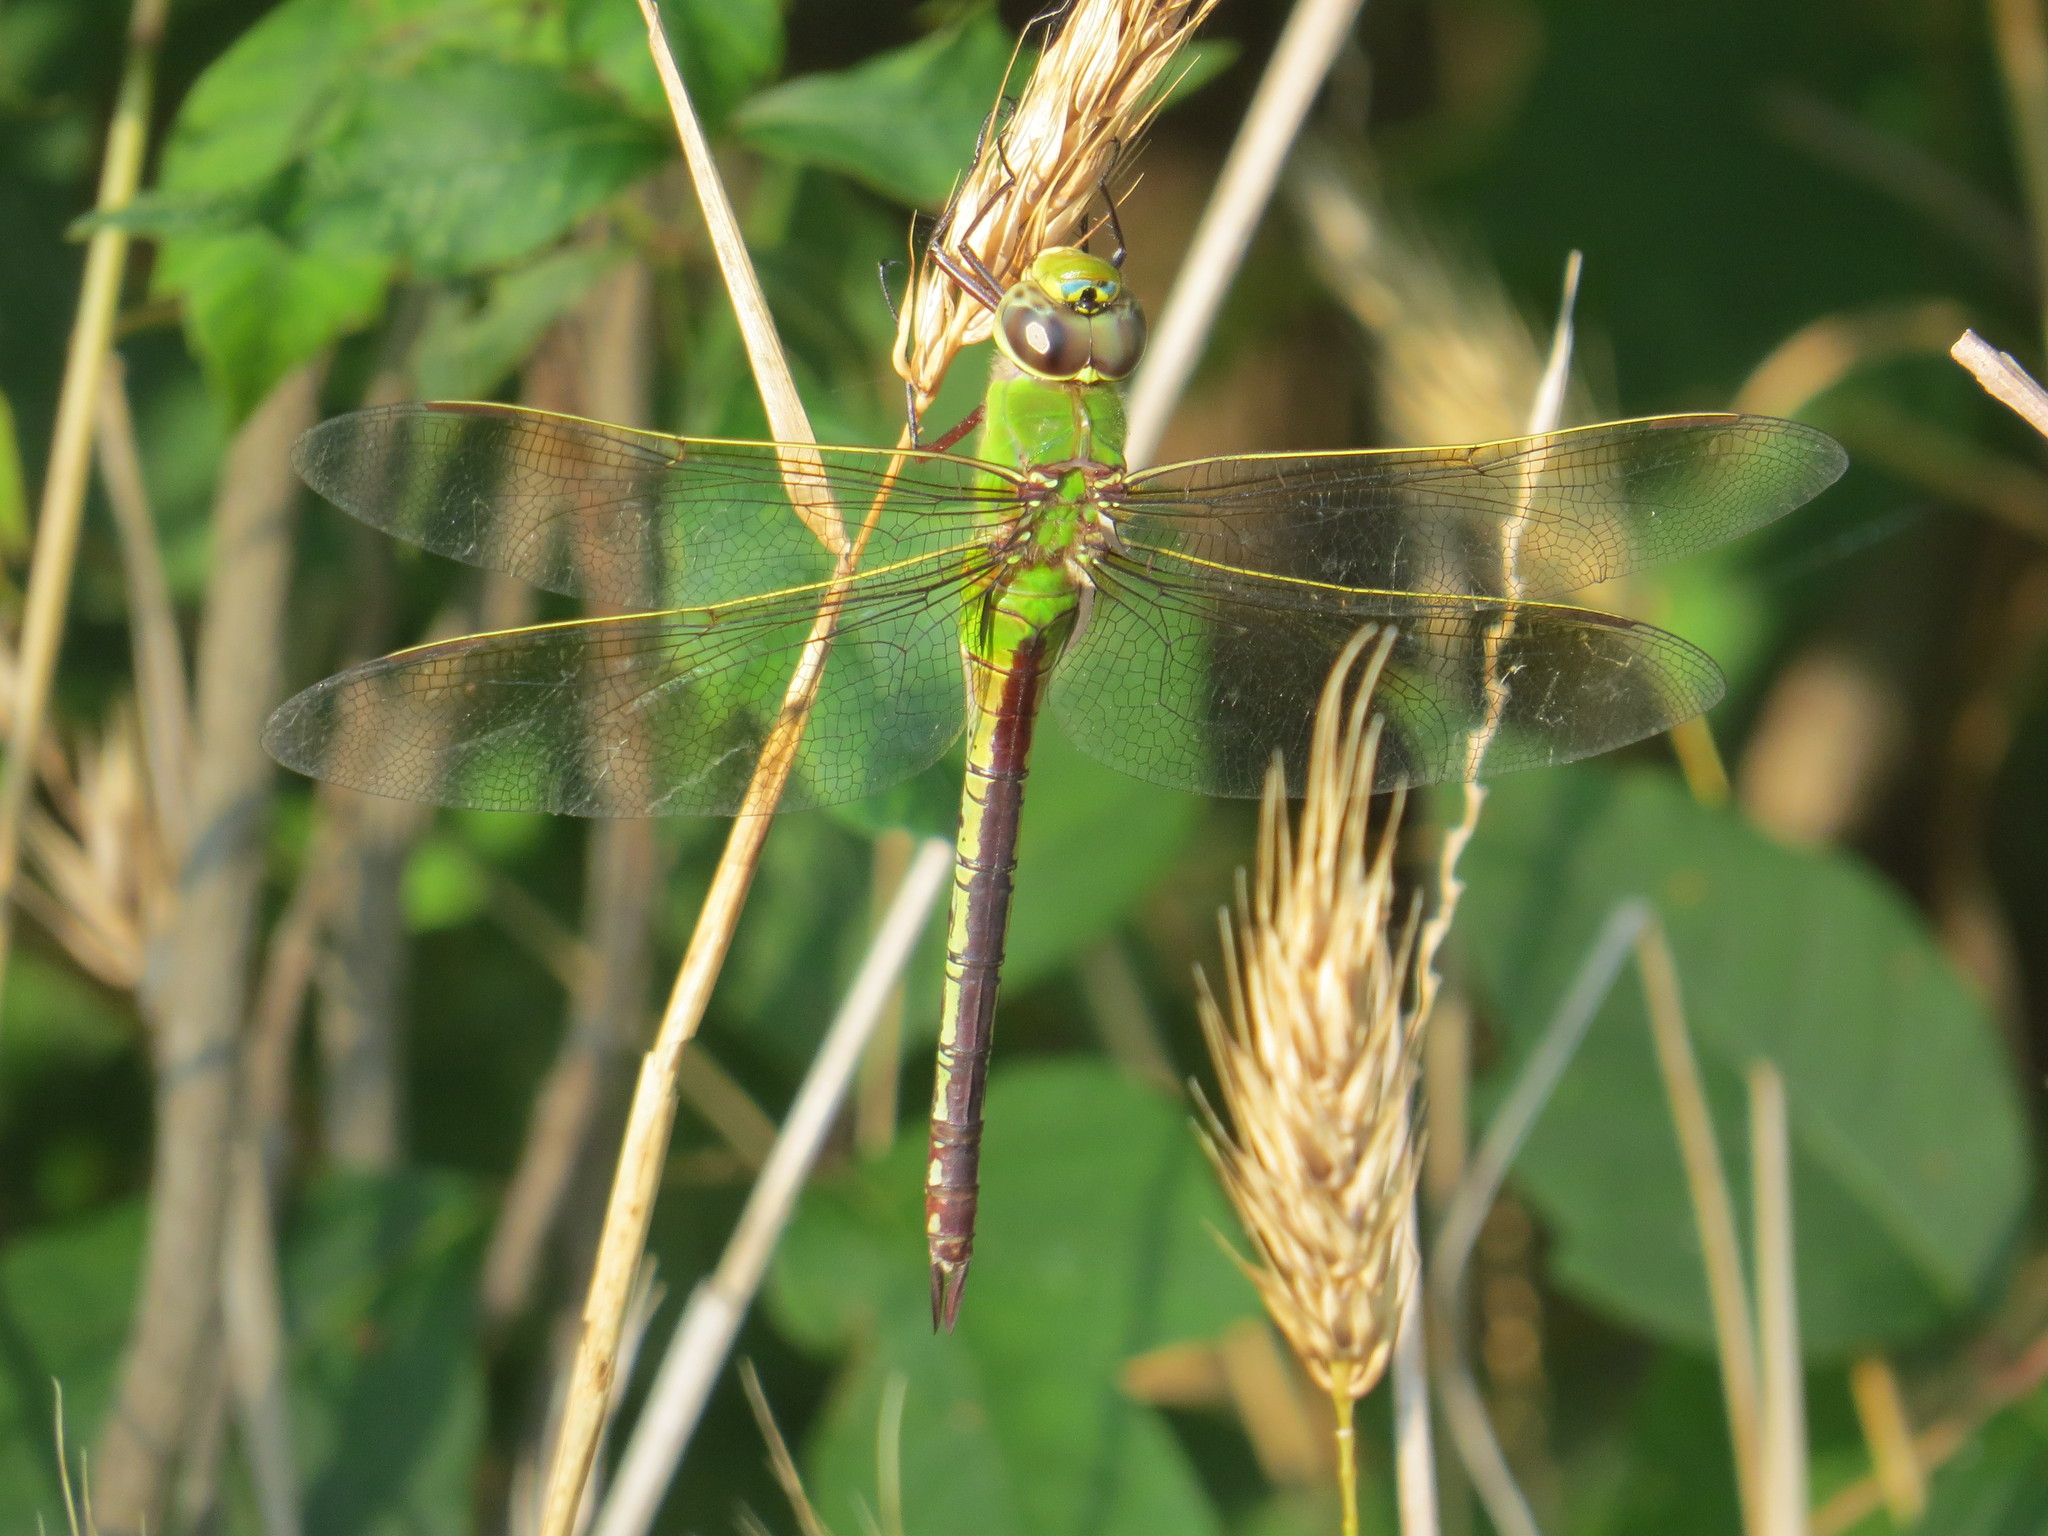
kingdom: Animalia
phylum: Arthropoda
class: Insecta
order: Odonata
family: Aeshnidae
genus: Anax
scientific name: Anax junius
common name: Common green darner
